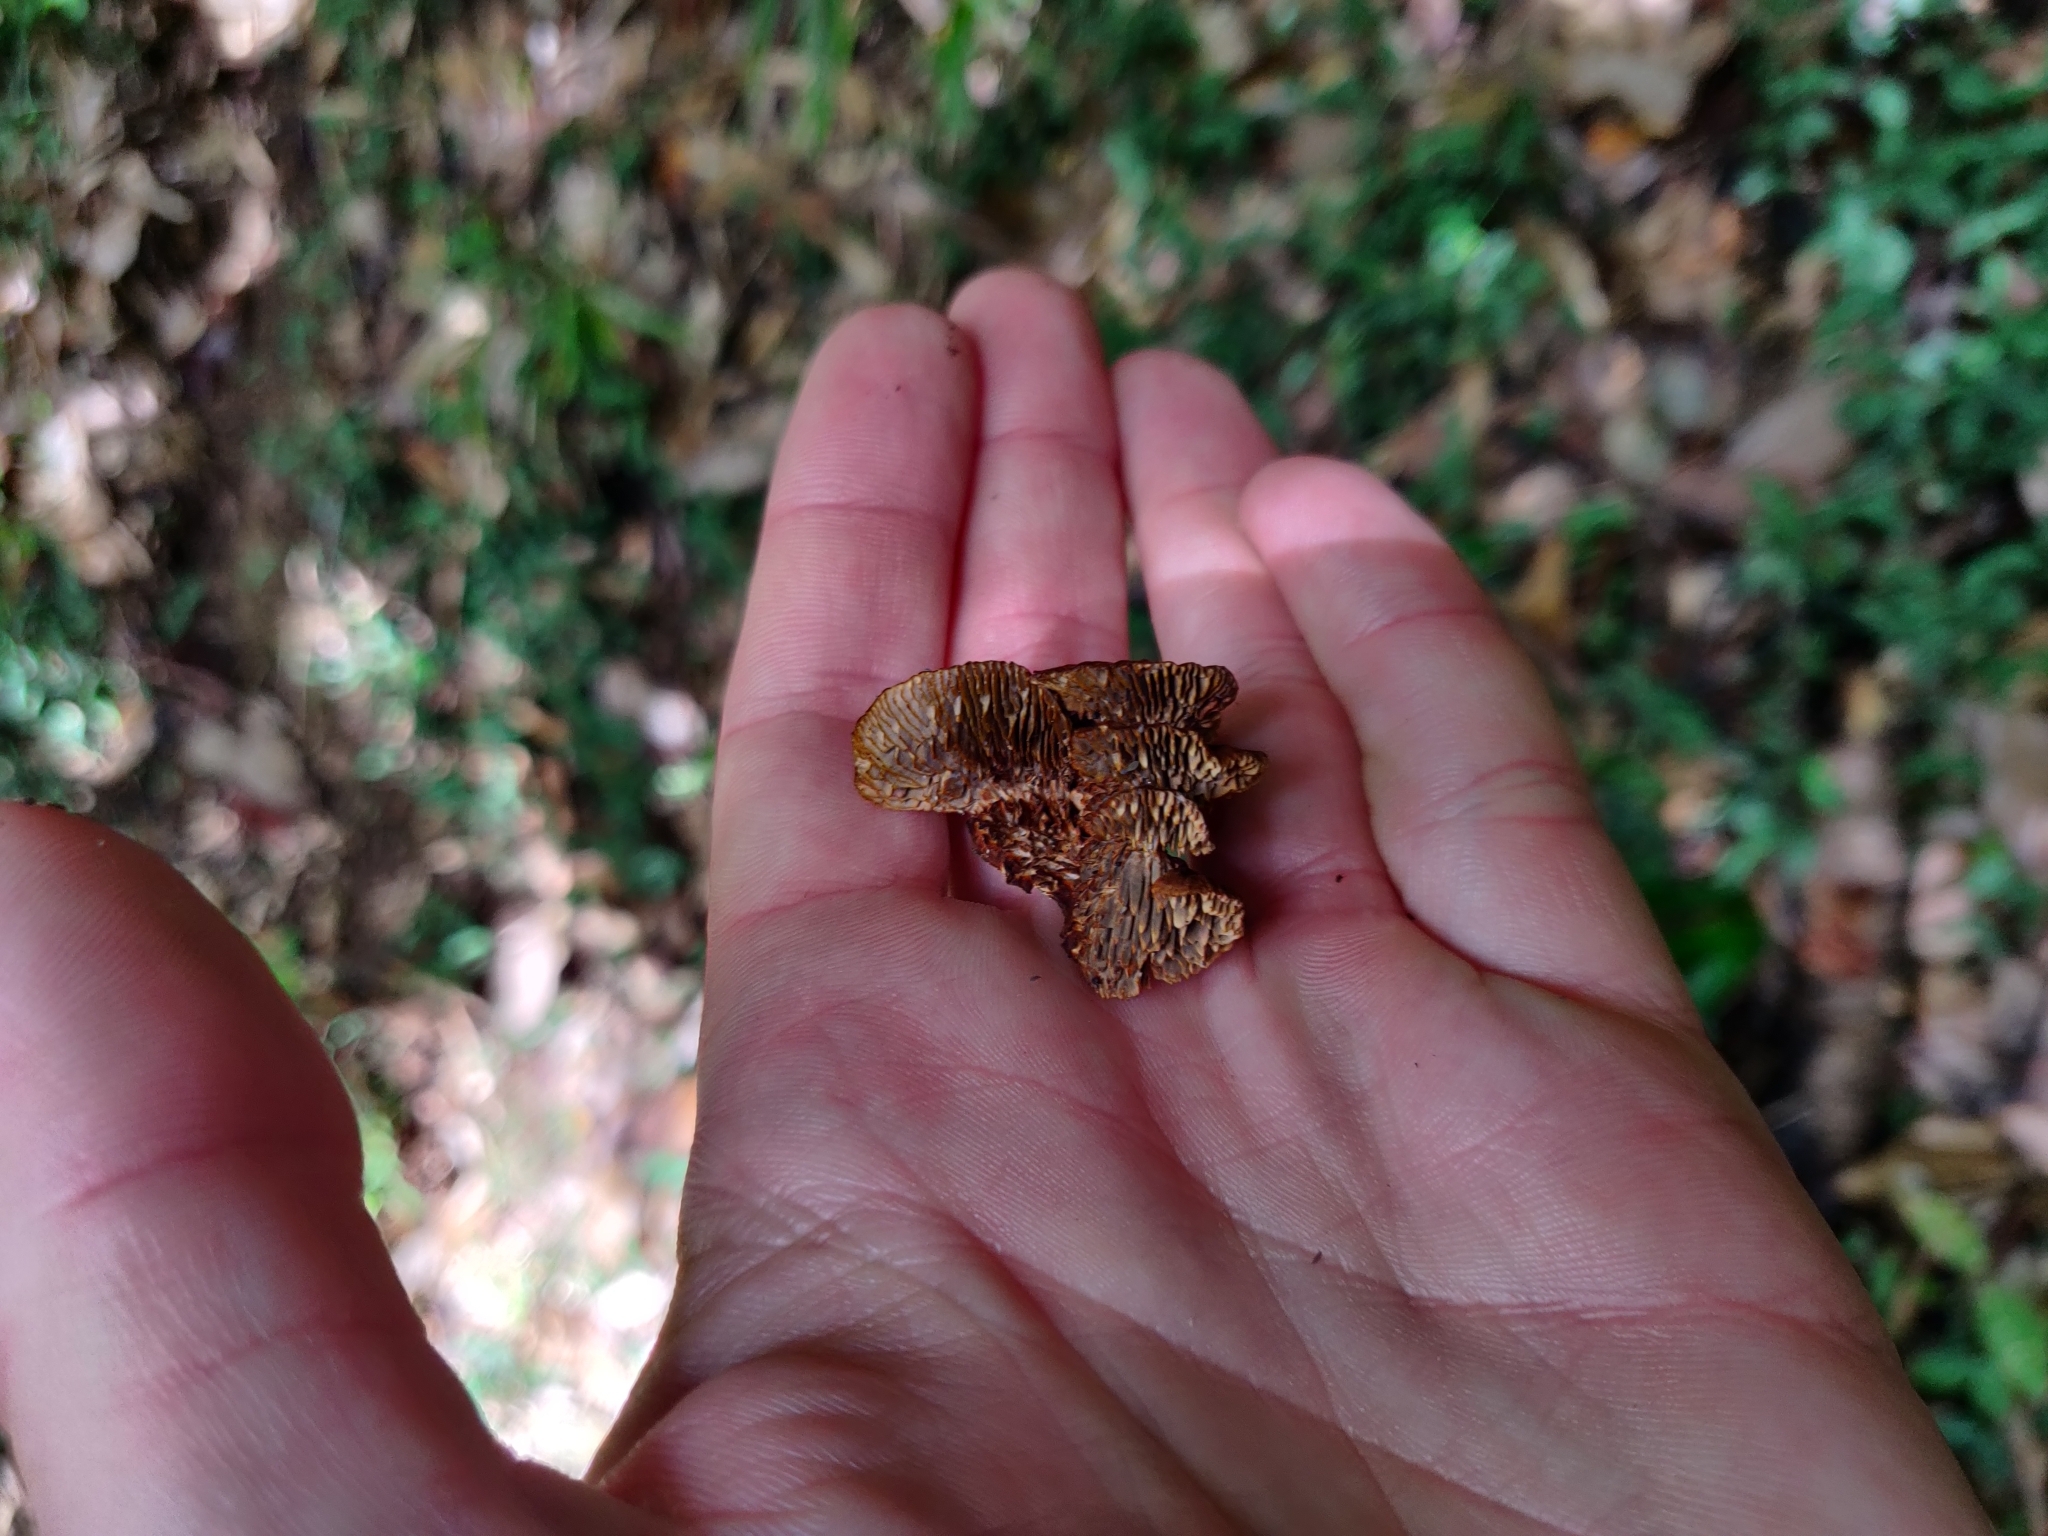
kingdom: Fungi
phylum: Basidiomycota
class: Agaricomycetes
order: Polyporales
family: Polyporaceae
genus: Daedaleopsis
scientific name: Daedaleopsis tricolor
